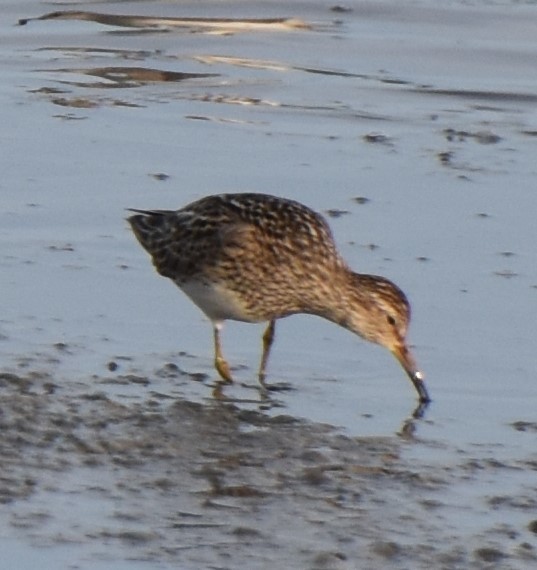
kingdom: Animalia
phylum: Chordata
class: Aves
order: Charadriiformes
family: Scolopacidae
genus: Calidris
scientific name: Calidris melanotos
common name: Pectoral sandpiper
